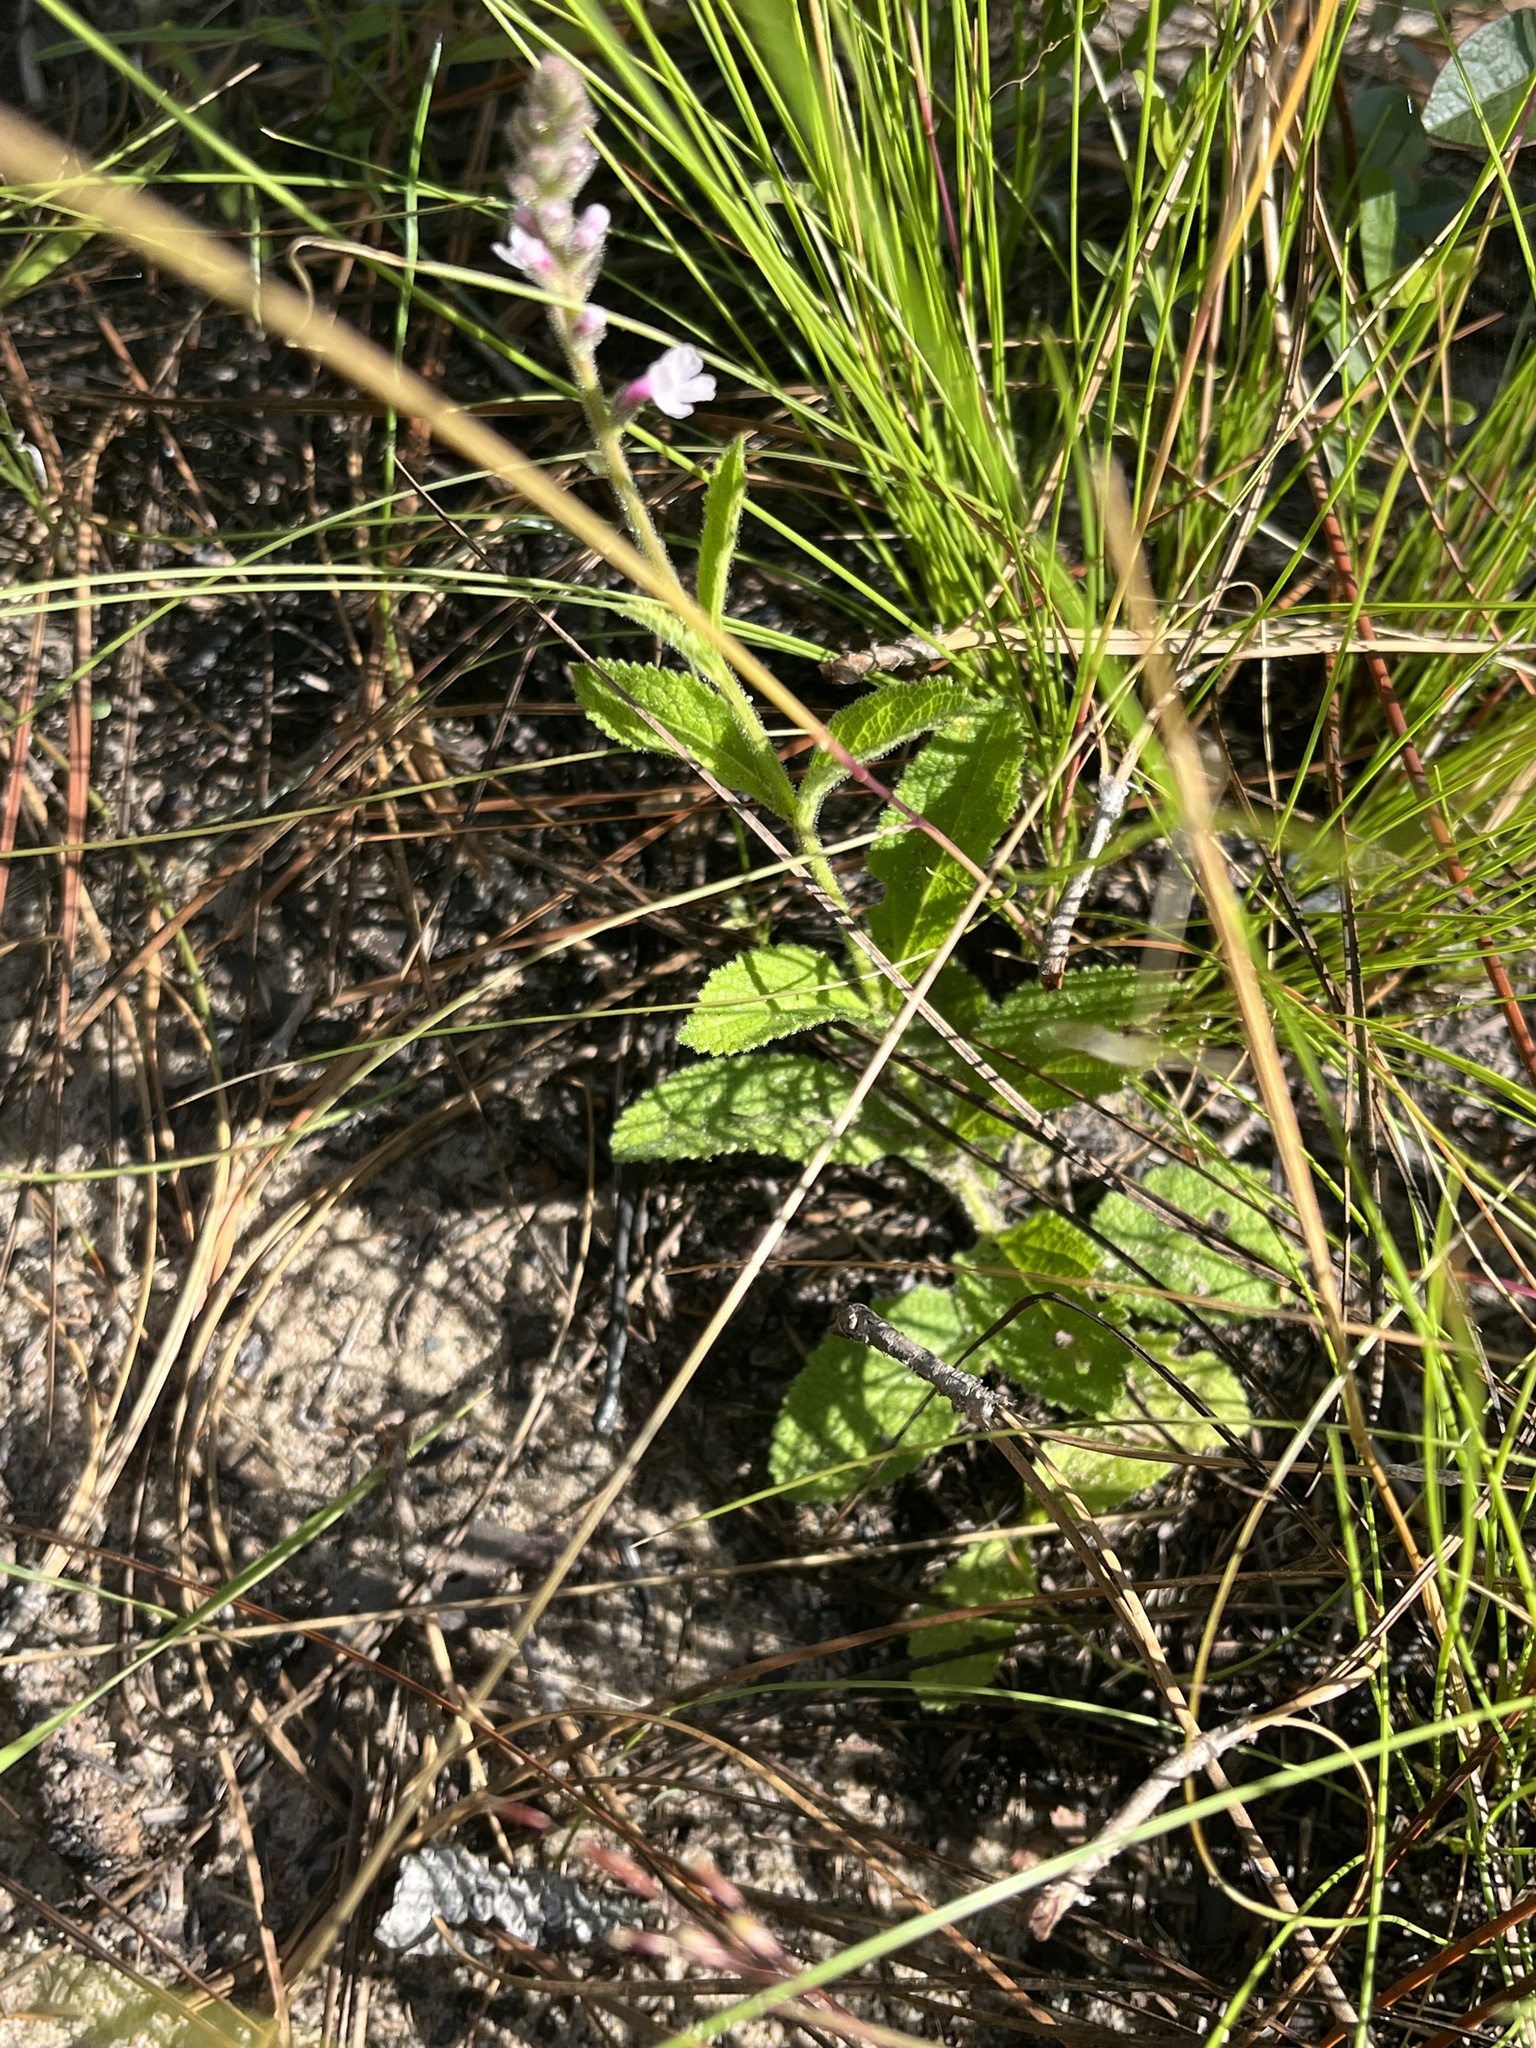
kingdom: Plantae
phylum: Tracheophyta
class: Magnoliopsida
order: Lamiales
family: Verbenaceae
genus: Verbena
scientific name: Verbena carnea
